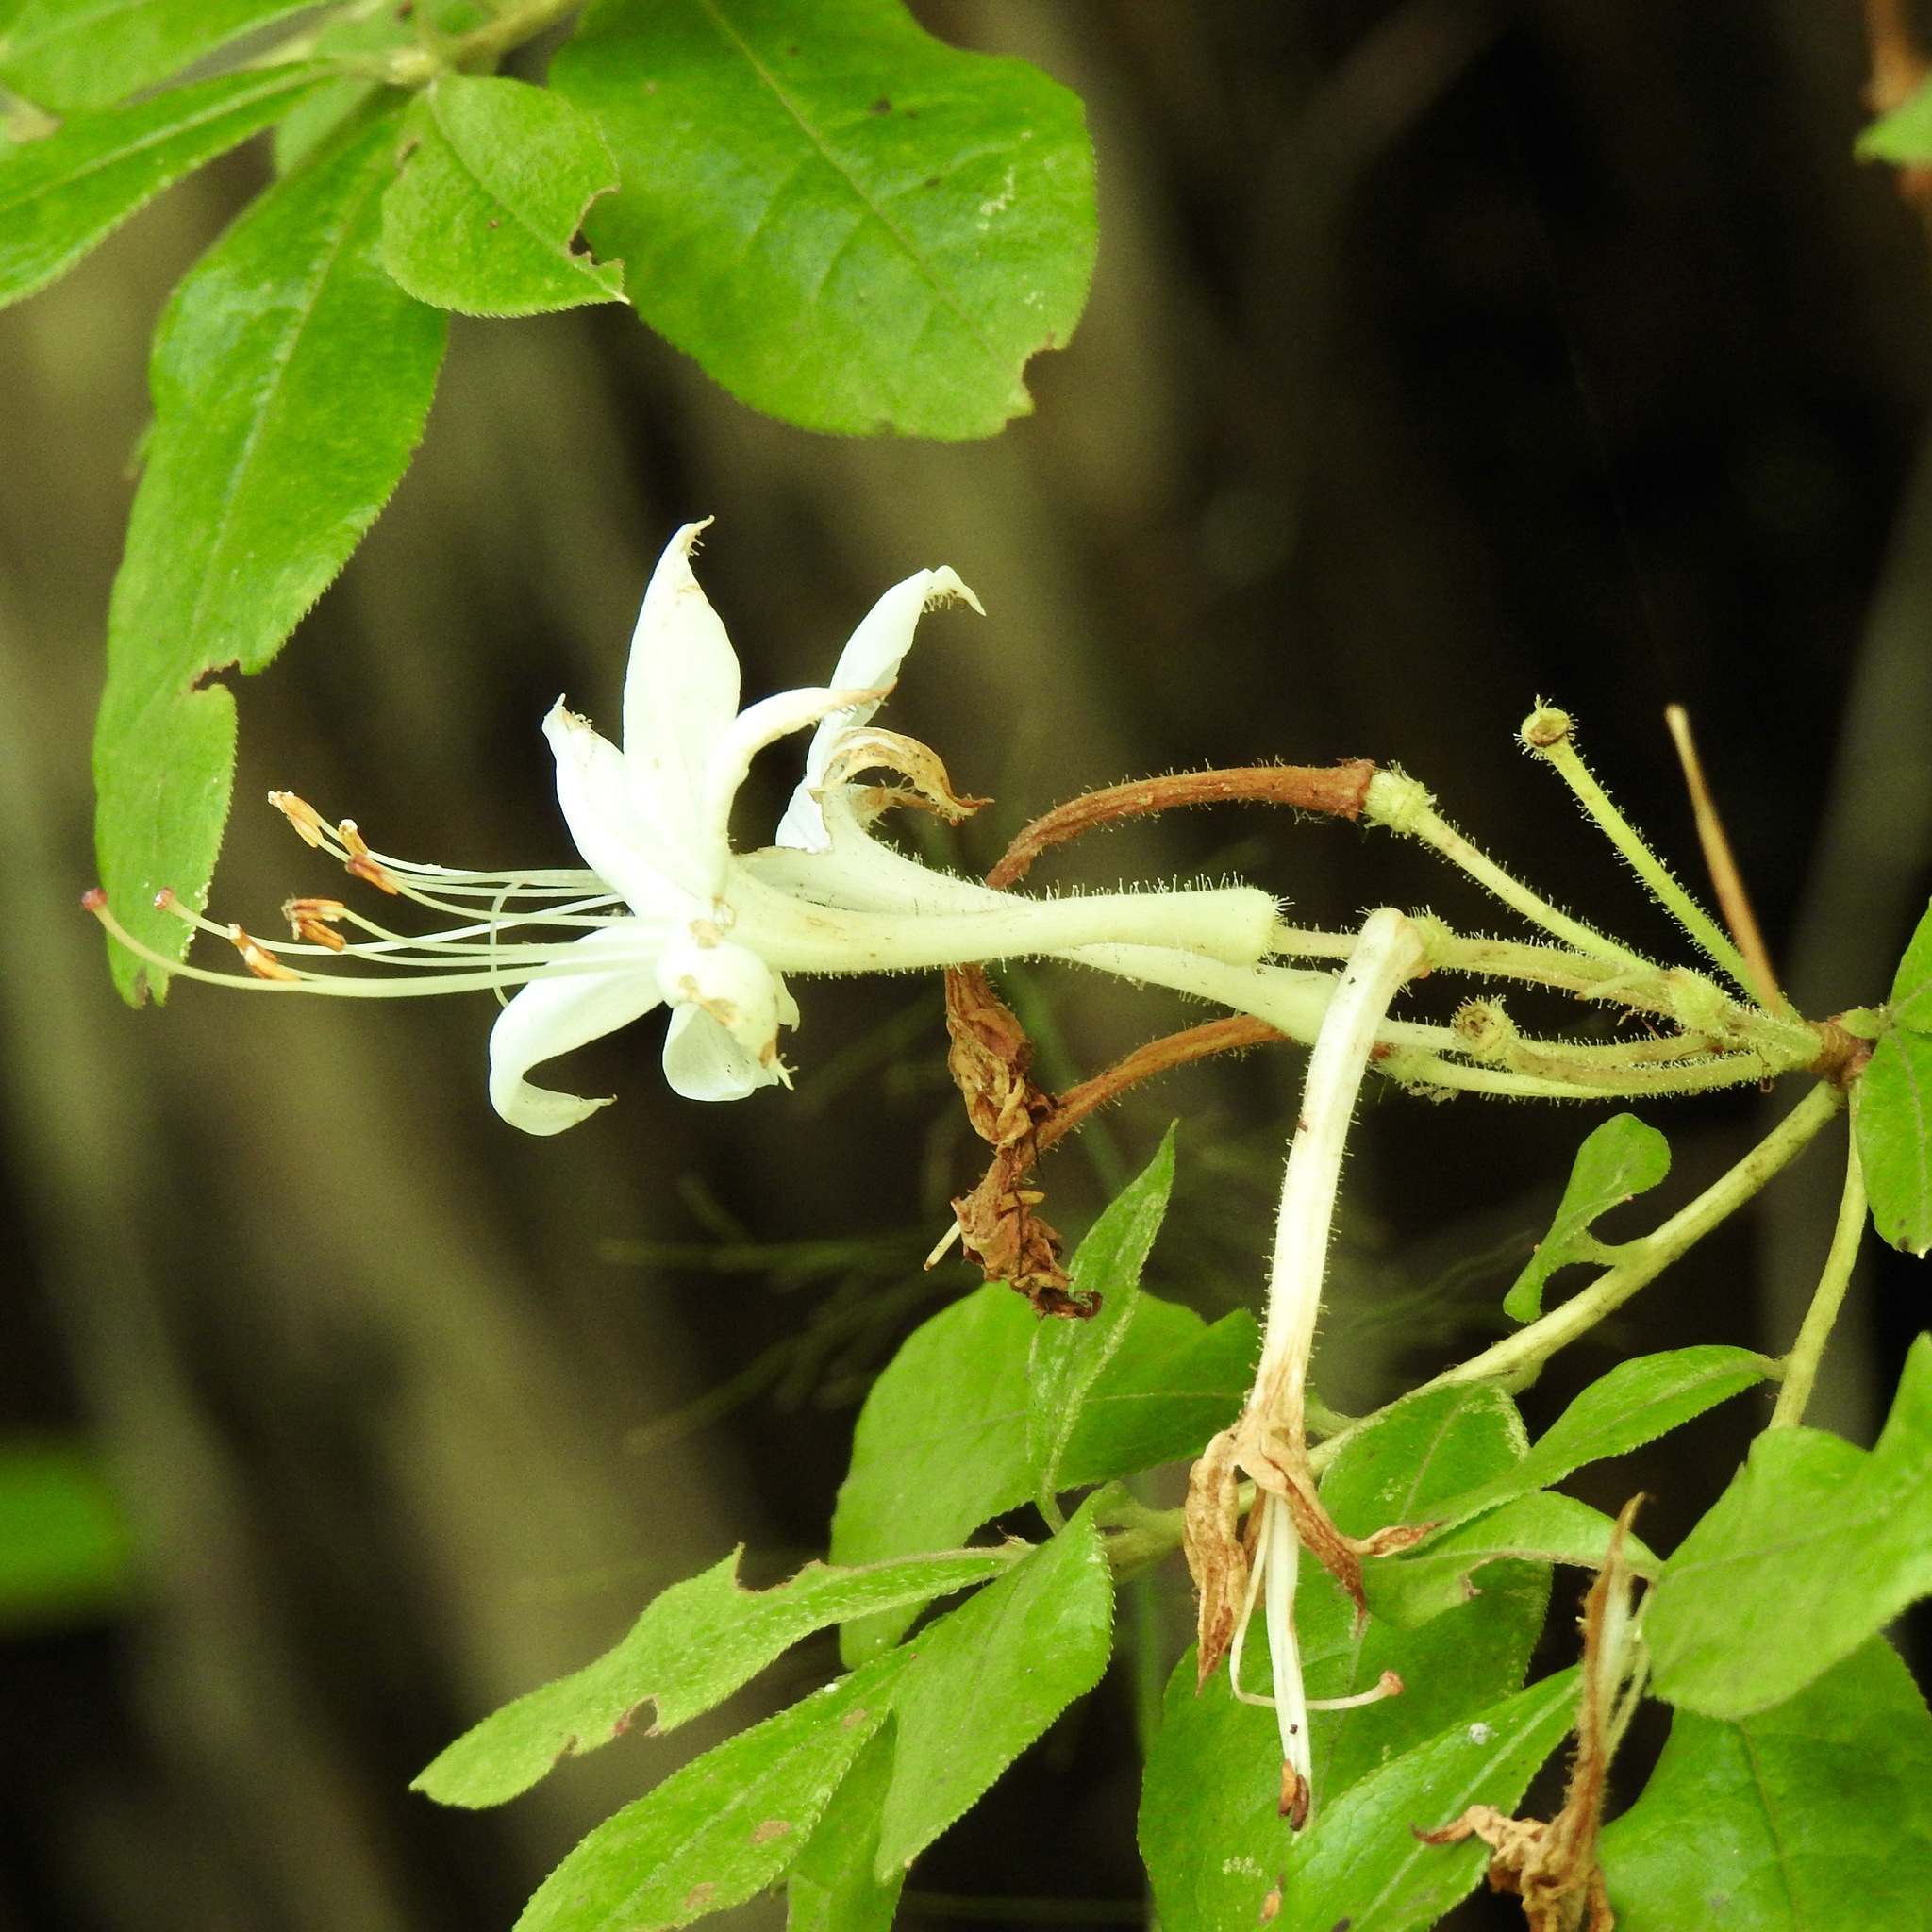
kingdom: Plantae
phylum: Tracheophyta
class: Magnoliopsida
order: Ericales
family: Ericaceae
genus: Rhododendron
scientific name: Rhododendron viscosum
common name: Clammy azalea
